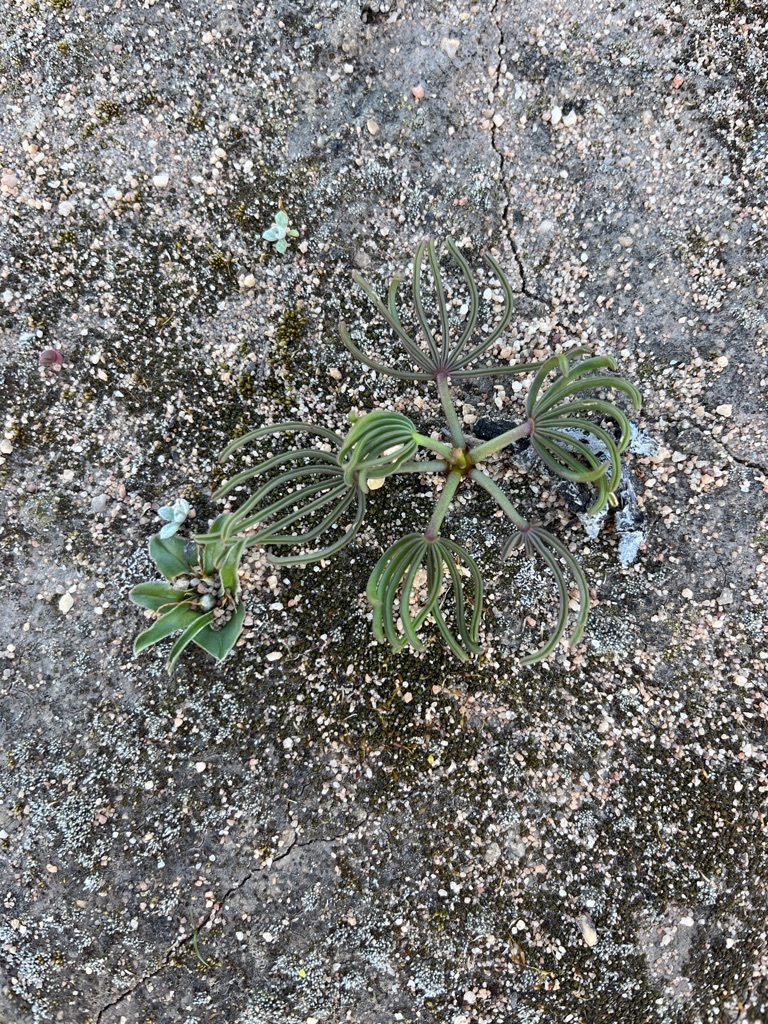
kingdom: Plantae
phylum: Tracheophyta
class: Magnoliopsida
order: Oxalidales
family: Oxalidaceae
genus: Oxalis
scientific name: Oxalis flava
